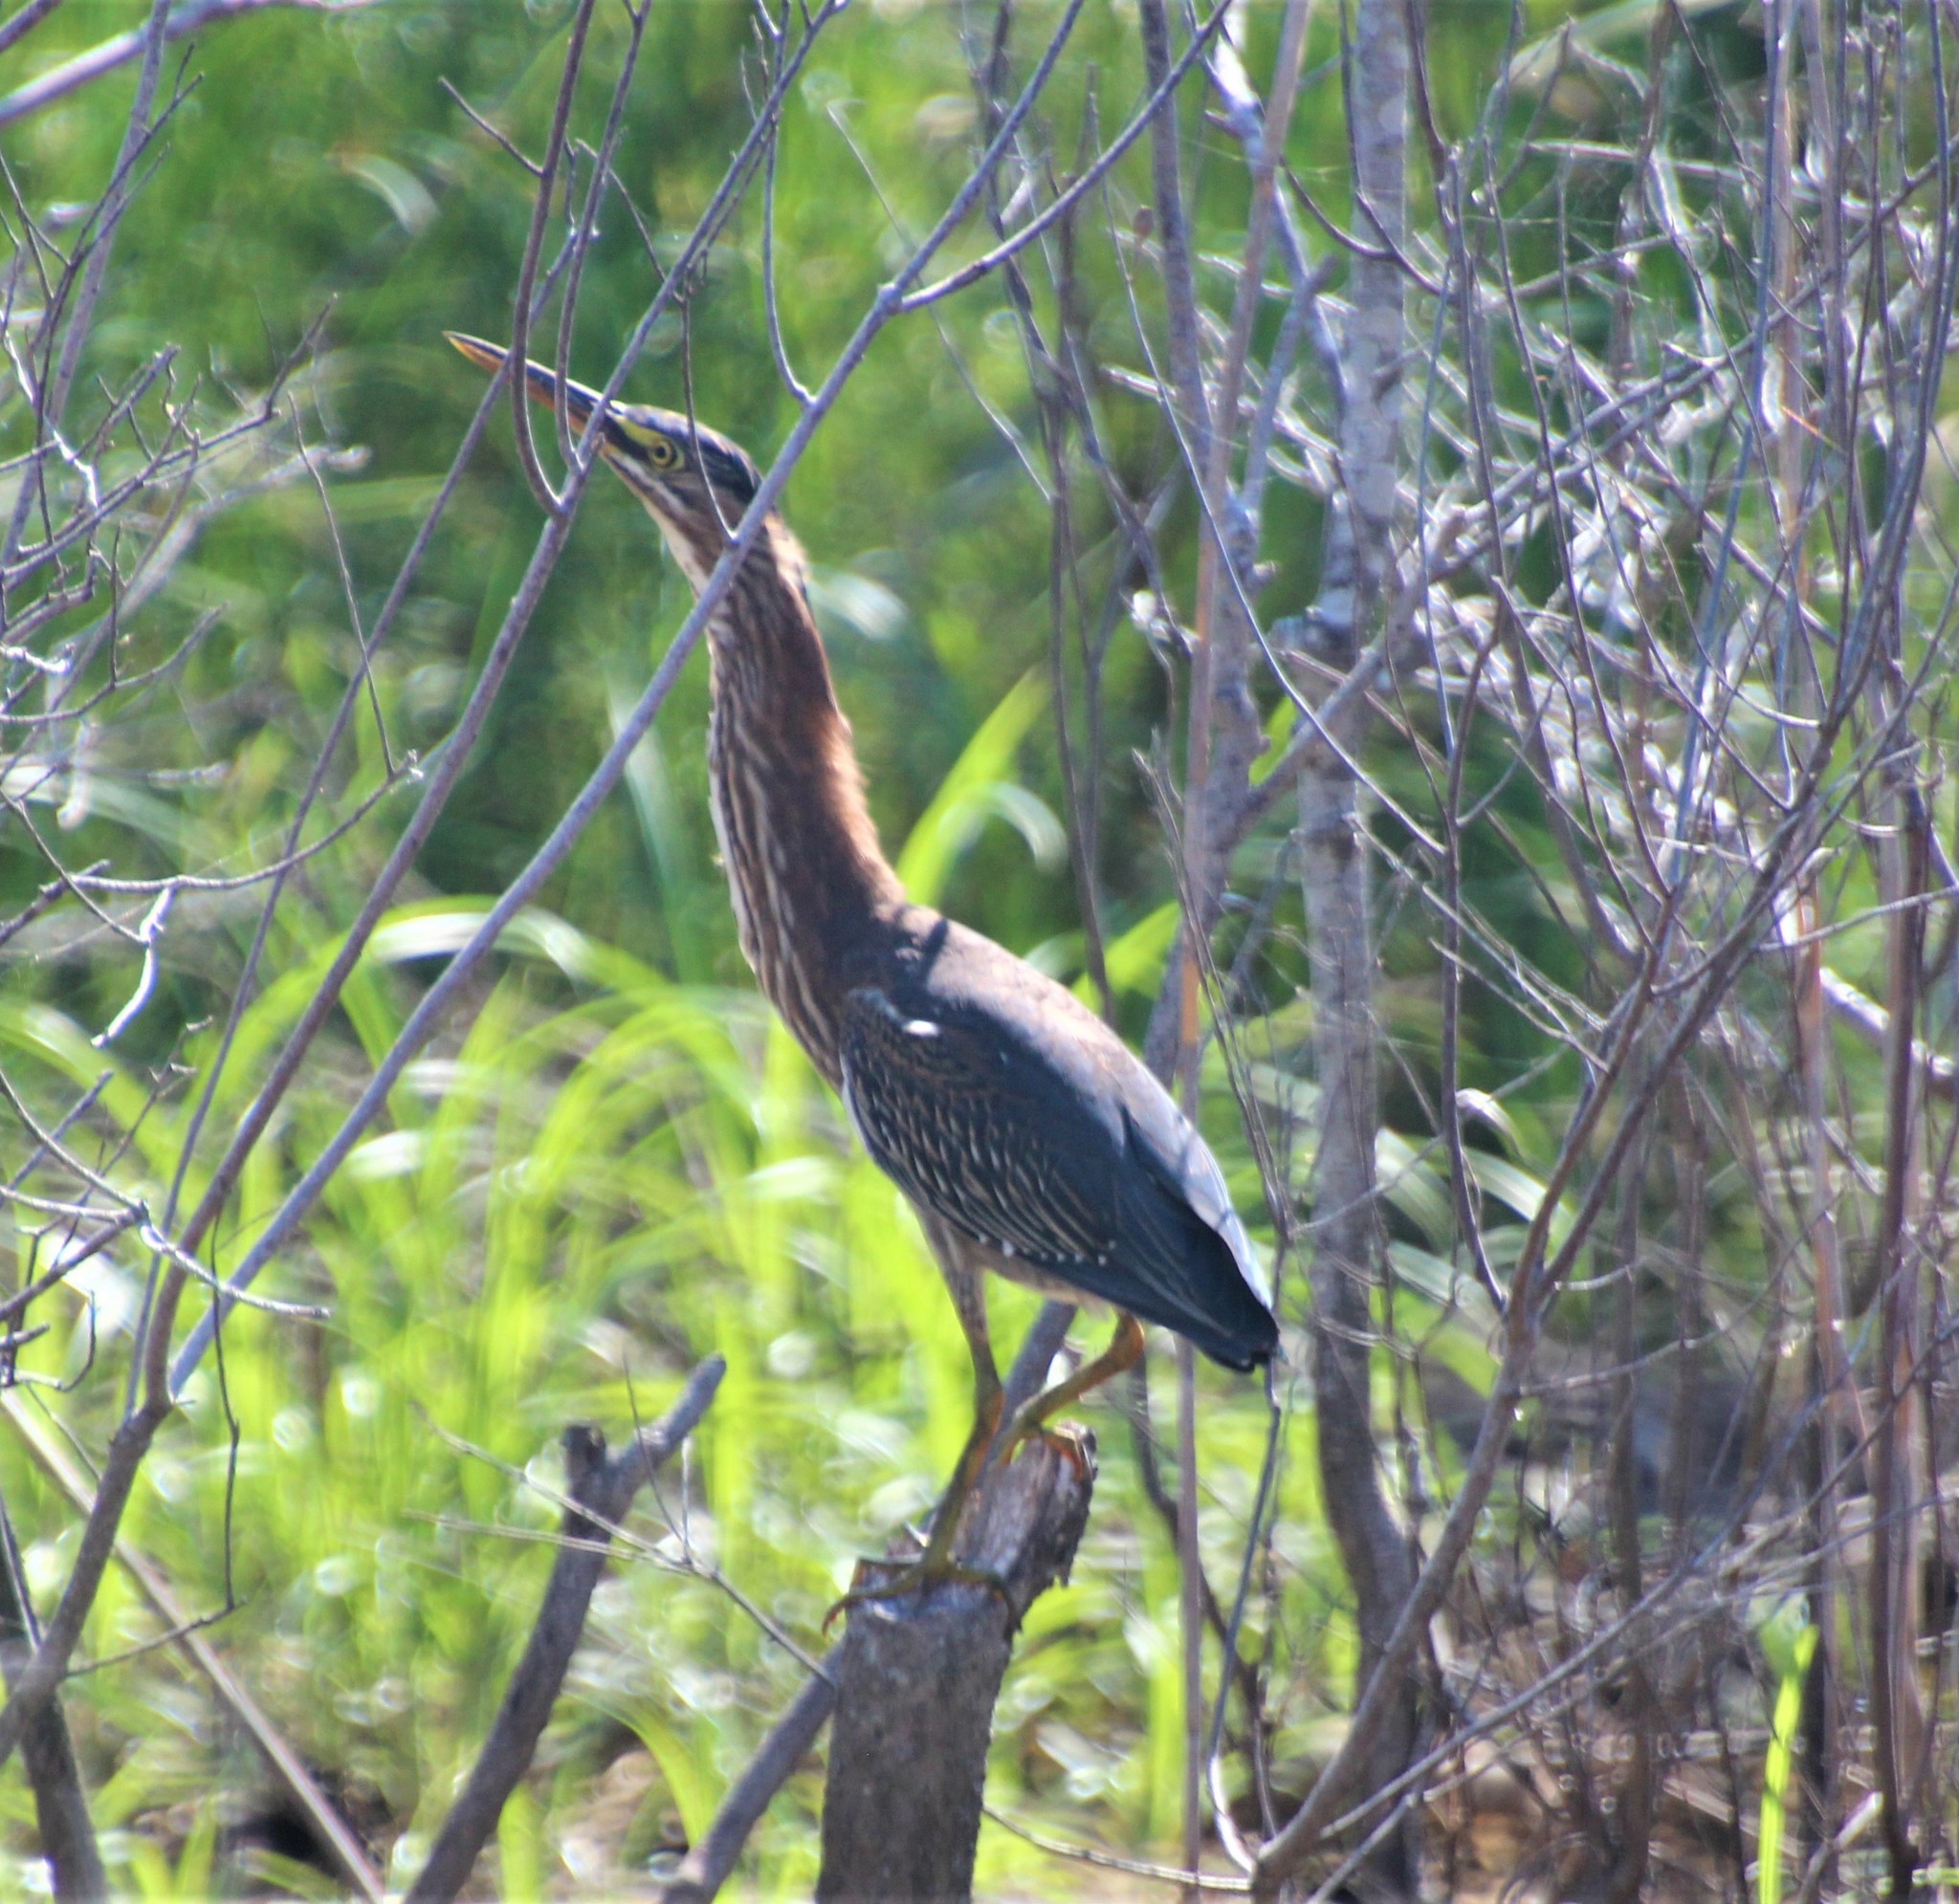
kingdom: Animalia
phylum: Chordata
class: Aves
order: Pelecaniformes
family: Ardeidae
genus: Butorides
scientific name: Butorides virescens
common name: Green heron
